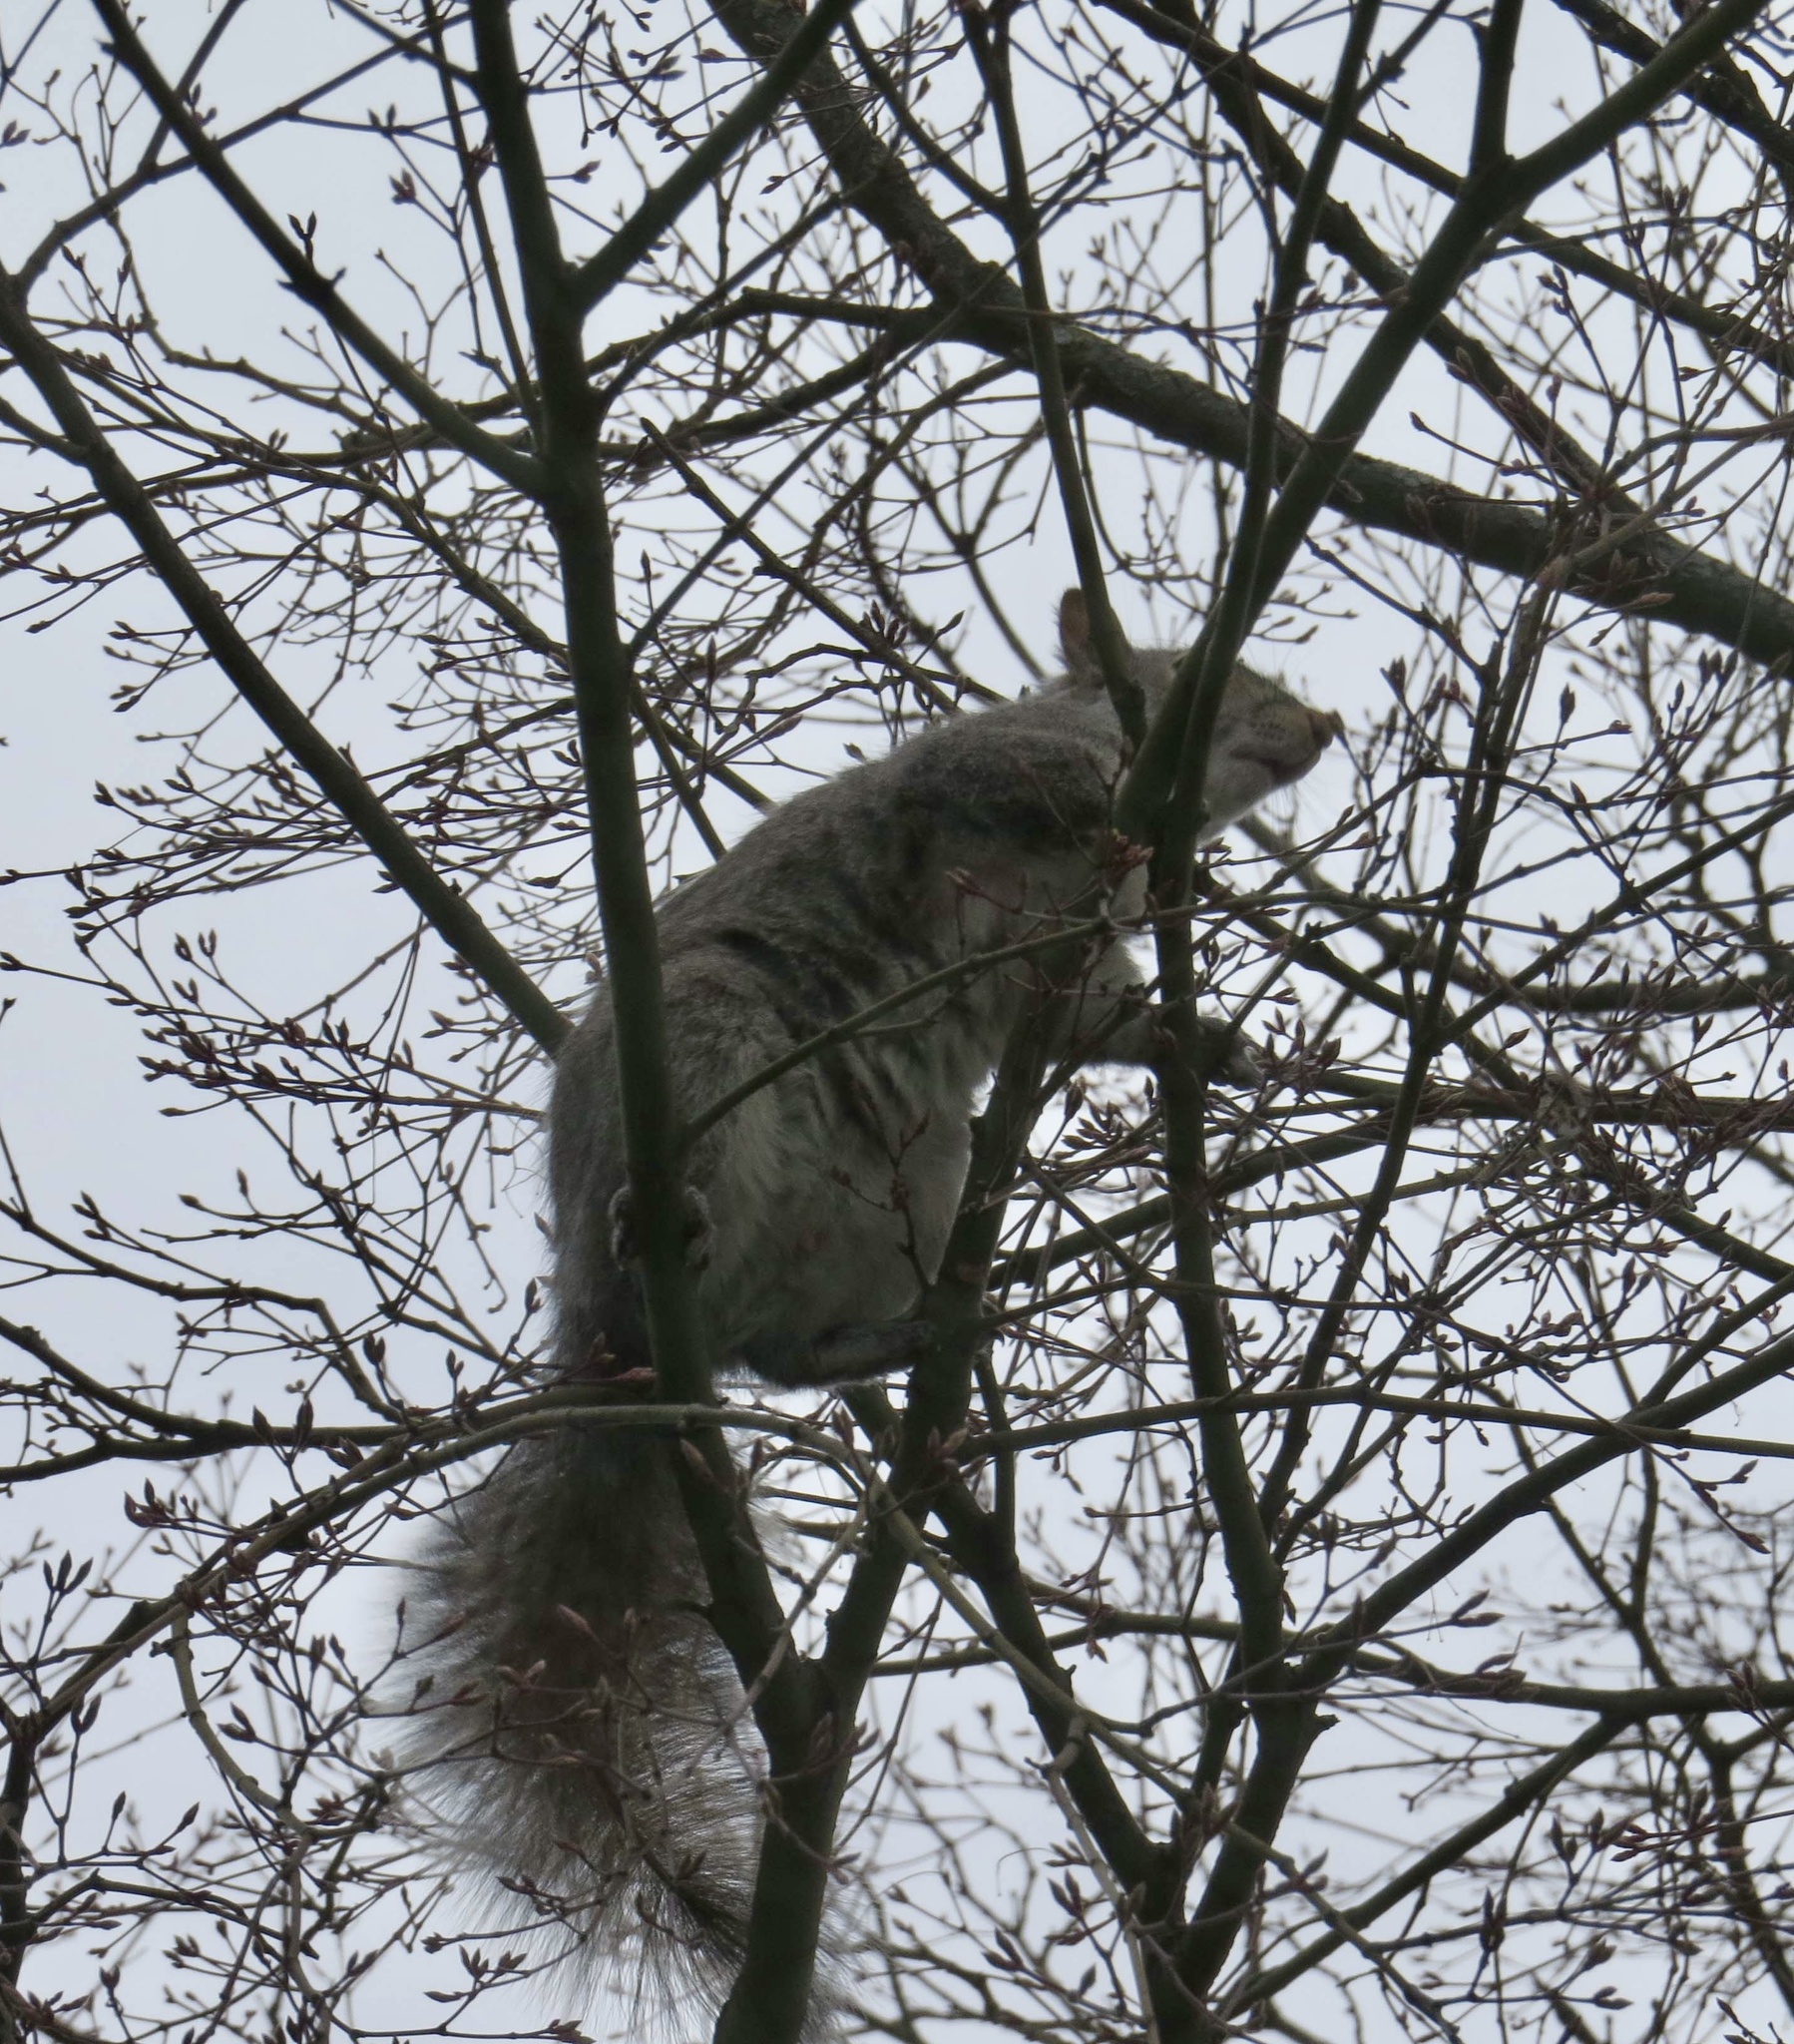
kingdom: Animalia
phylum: Chordata
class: Mammalia
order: Rodentia
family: Sciuridae
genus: Sciurus
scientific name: Sciurus carolinensis
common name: Eastern gray squirrel
